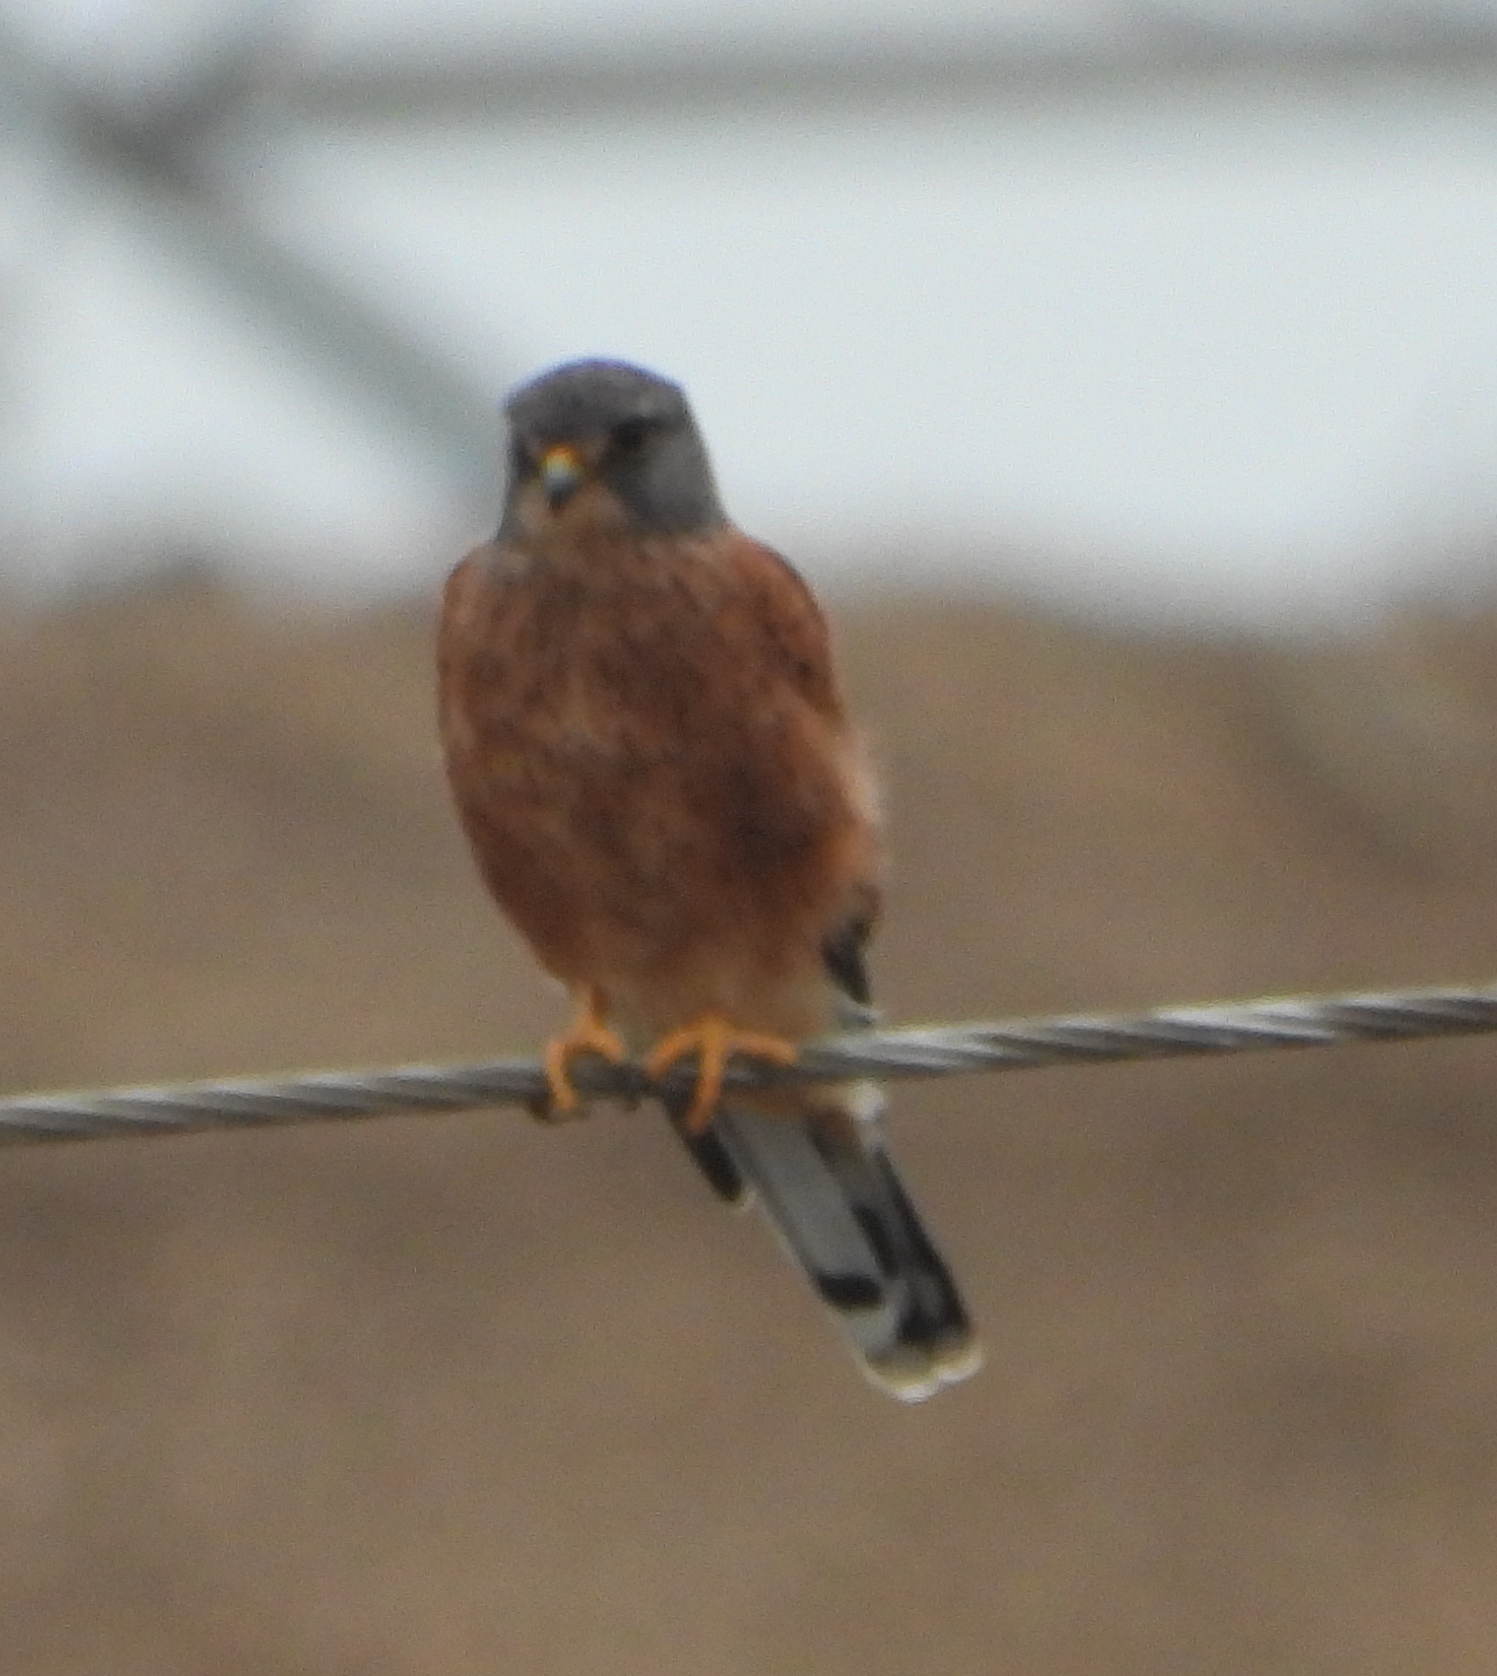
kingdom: Animalia
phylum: Chordata
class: Aves
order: Falconiformes
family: Falconidae
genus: Falco
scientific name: Falco rupicolus
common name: Rock kestrel
